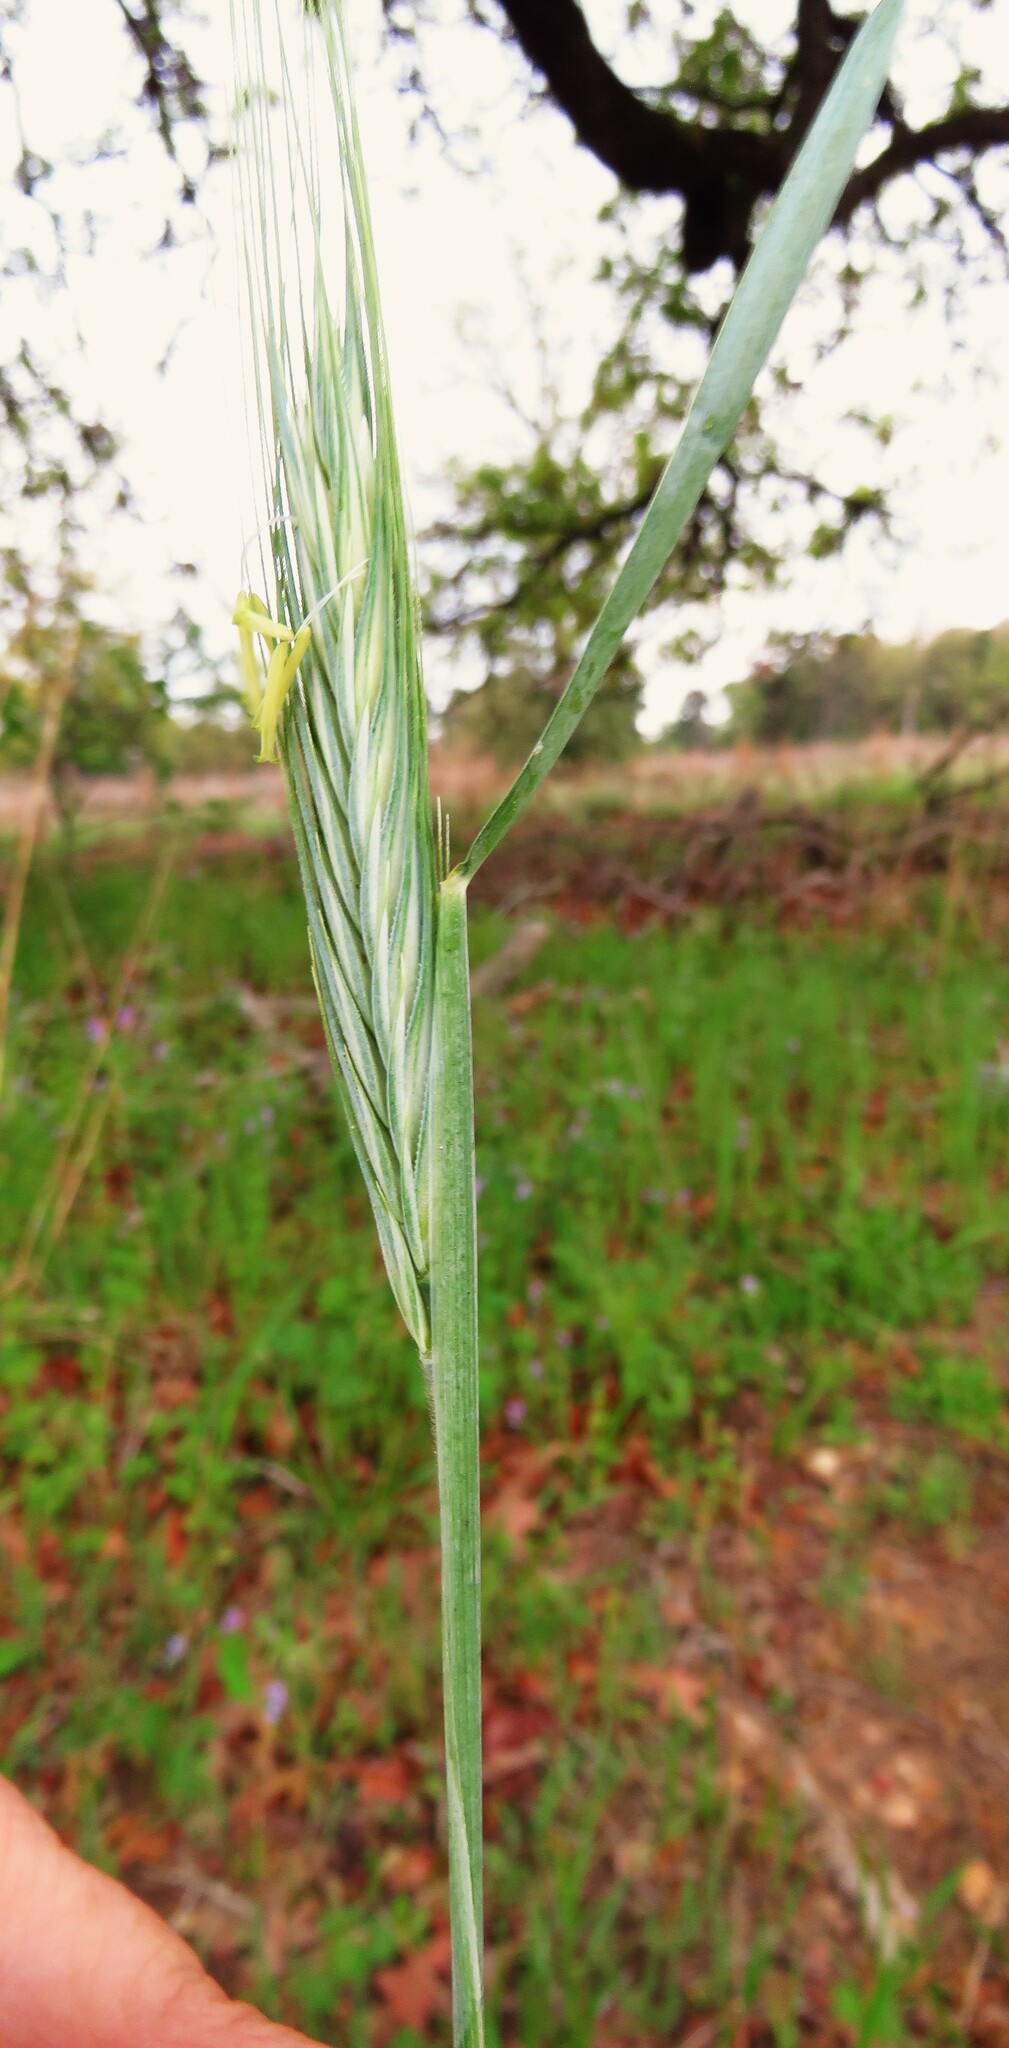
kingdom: Plantae
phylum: Tracheophyta
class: Liliopsida
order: Poales
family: Poaceae
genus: Secale
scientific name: Secale cereale
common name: Rye
